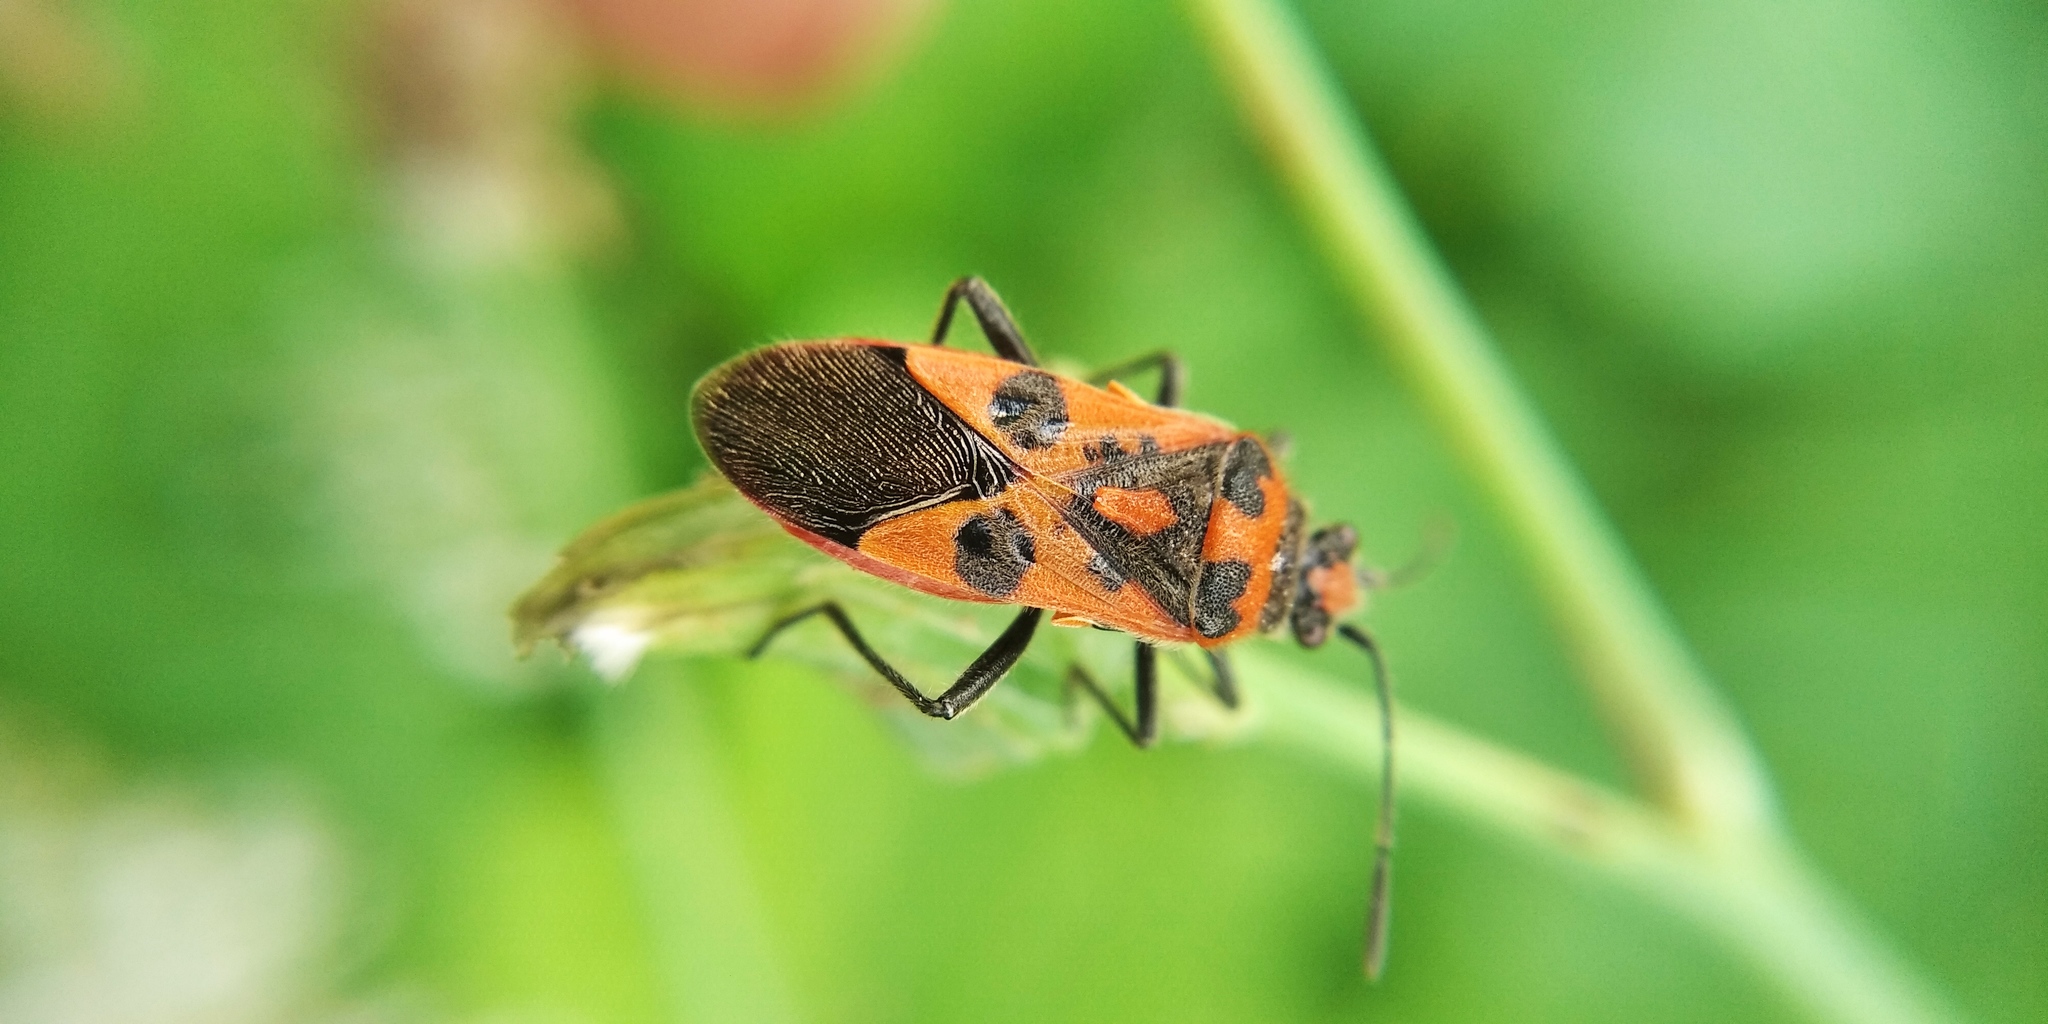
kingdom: Animalia
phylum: Arthropoda
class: Insecta
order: Hemiptera
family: Rhopalidae
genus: Corizus
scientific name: Corizus hyoscyami
